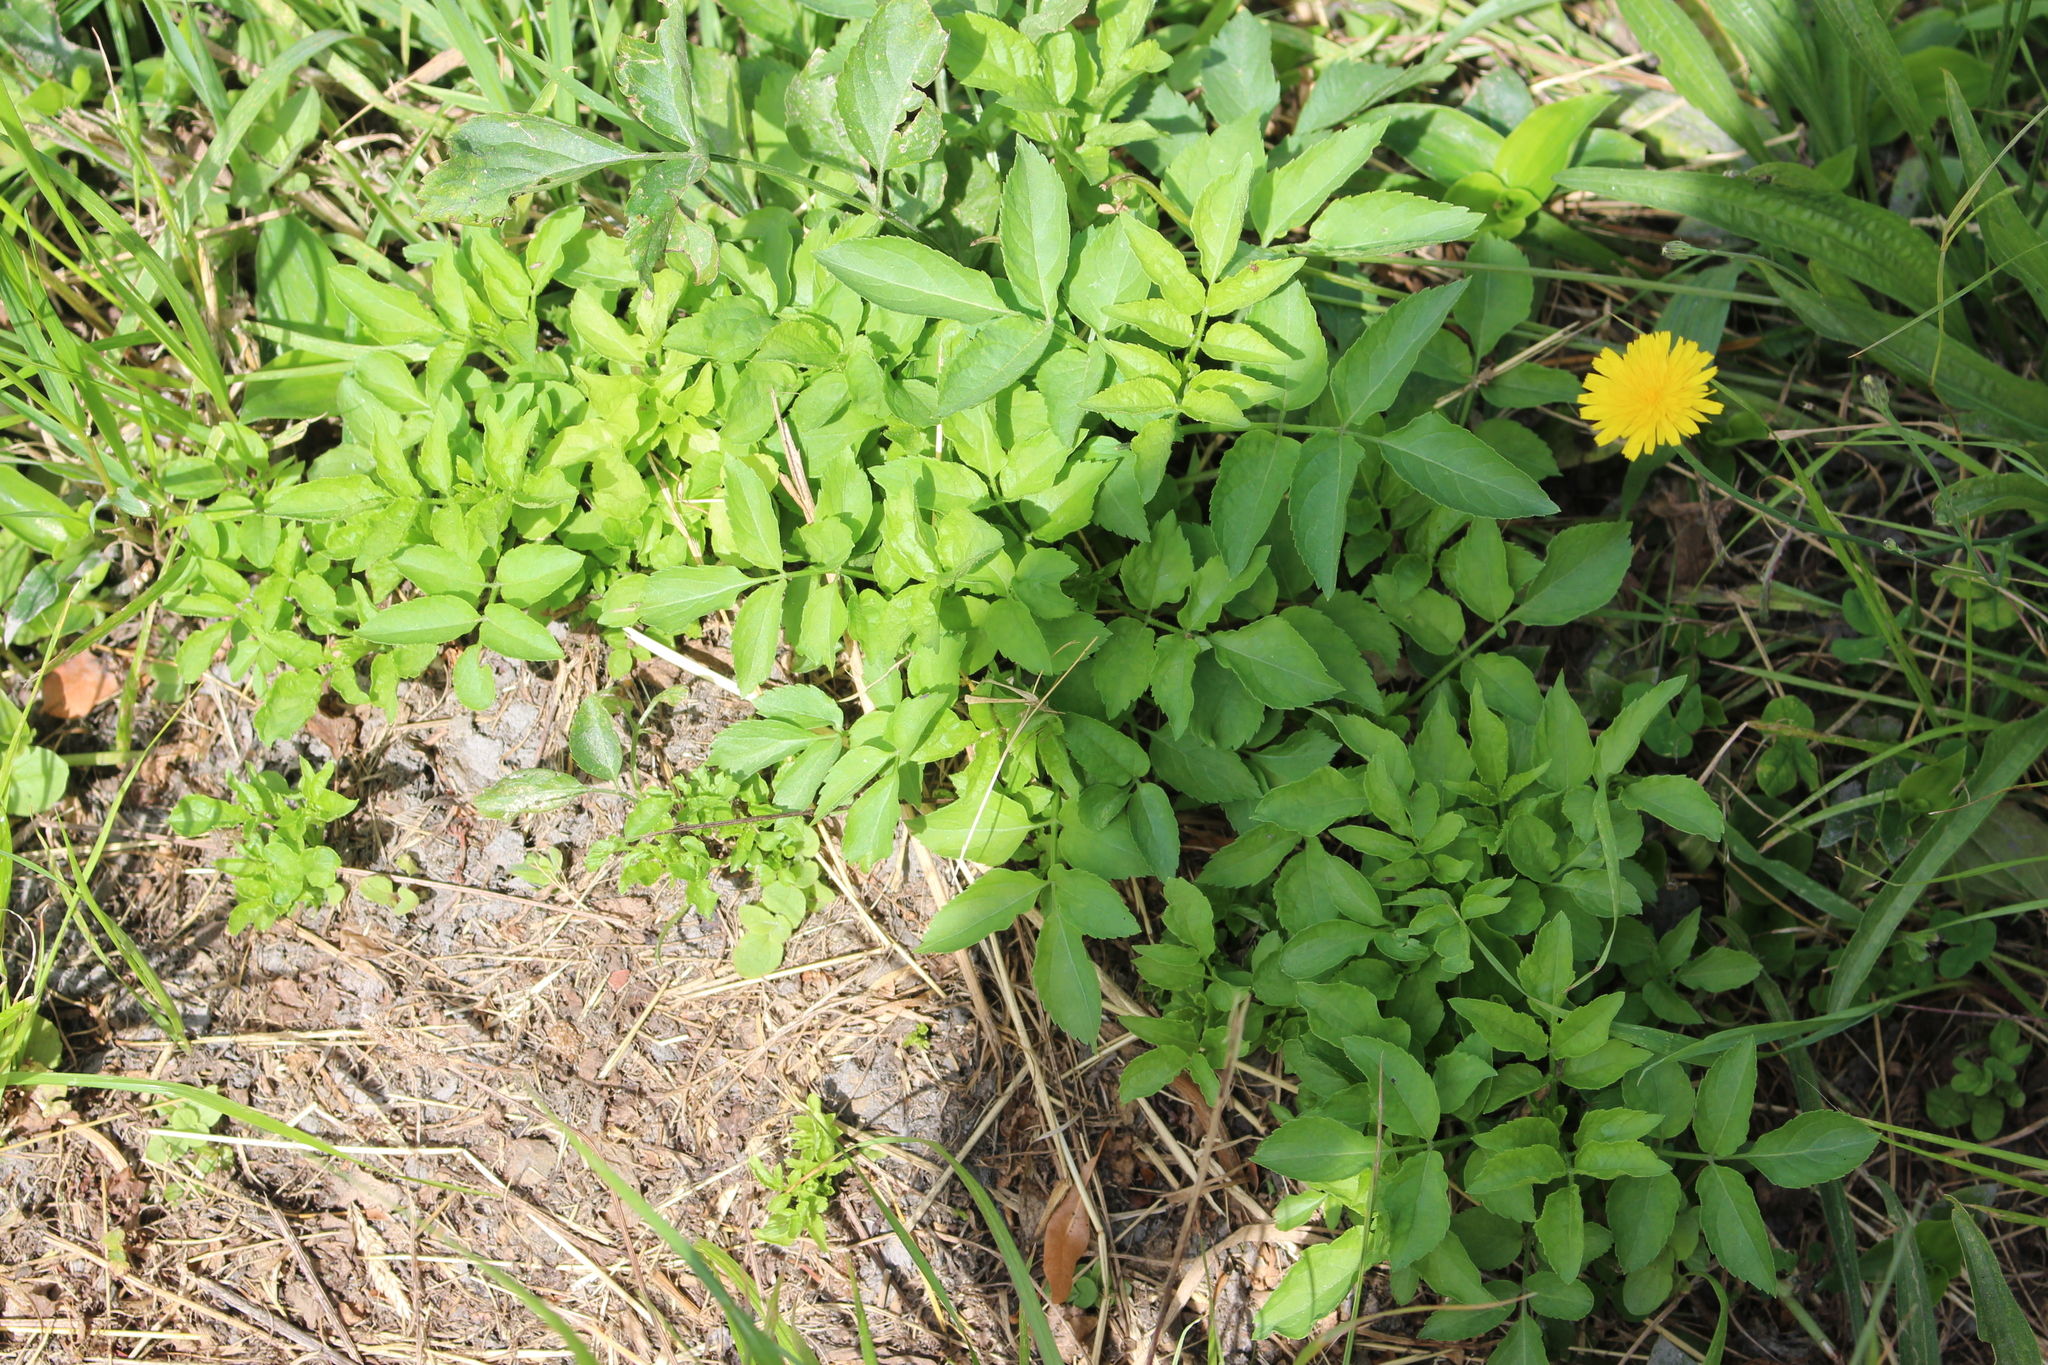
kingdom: Plantae
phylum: Tracheophyta
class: Magnoliopsida
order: Dipsacales
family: Viburnaceae
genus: Sambucus
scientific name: Sambucus nigra
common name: Elder
